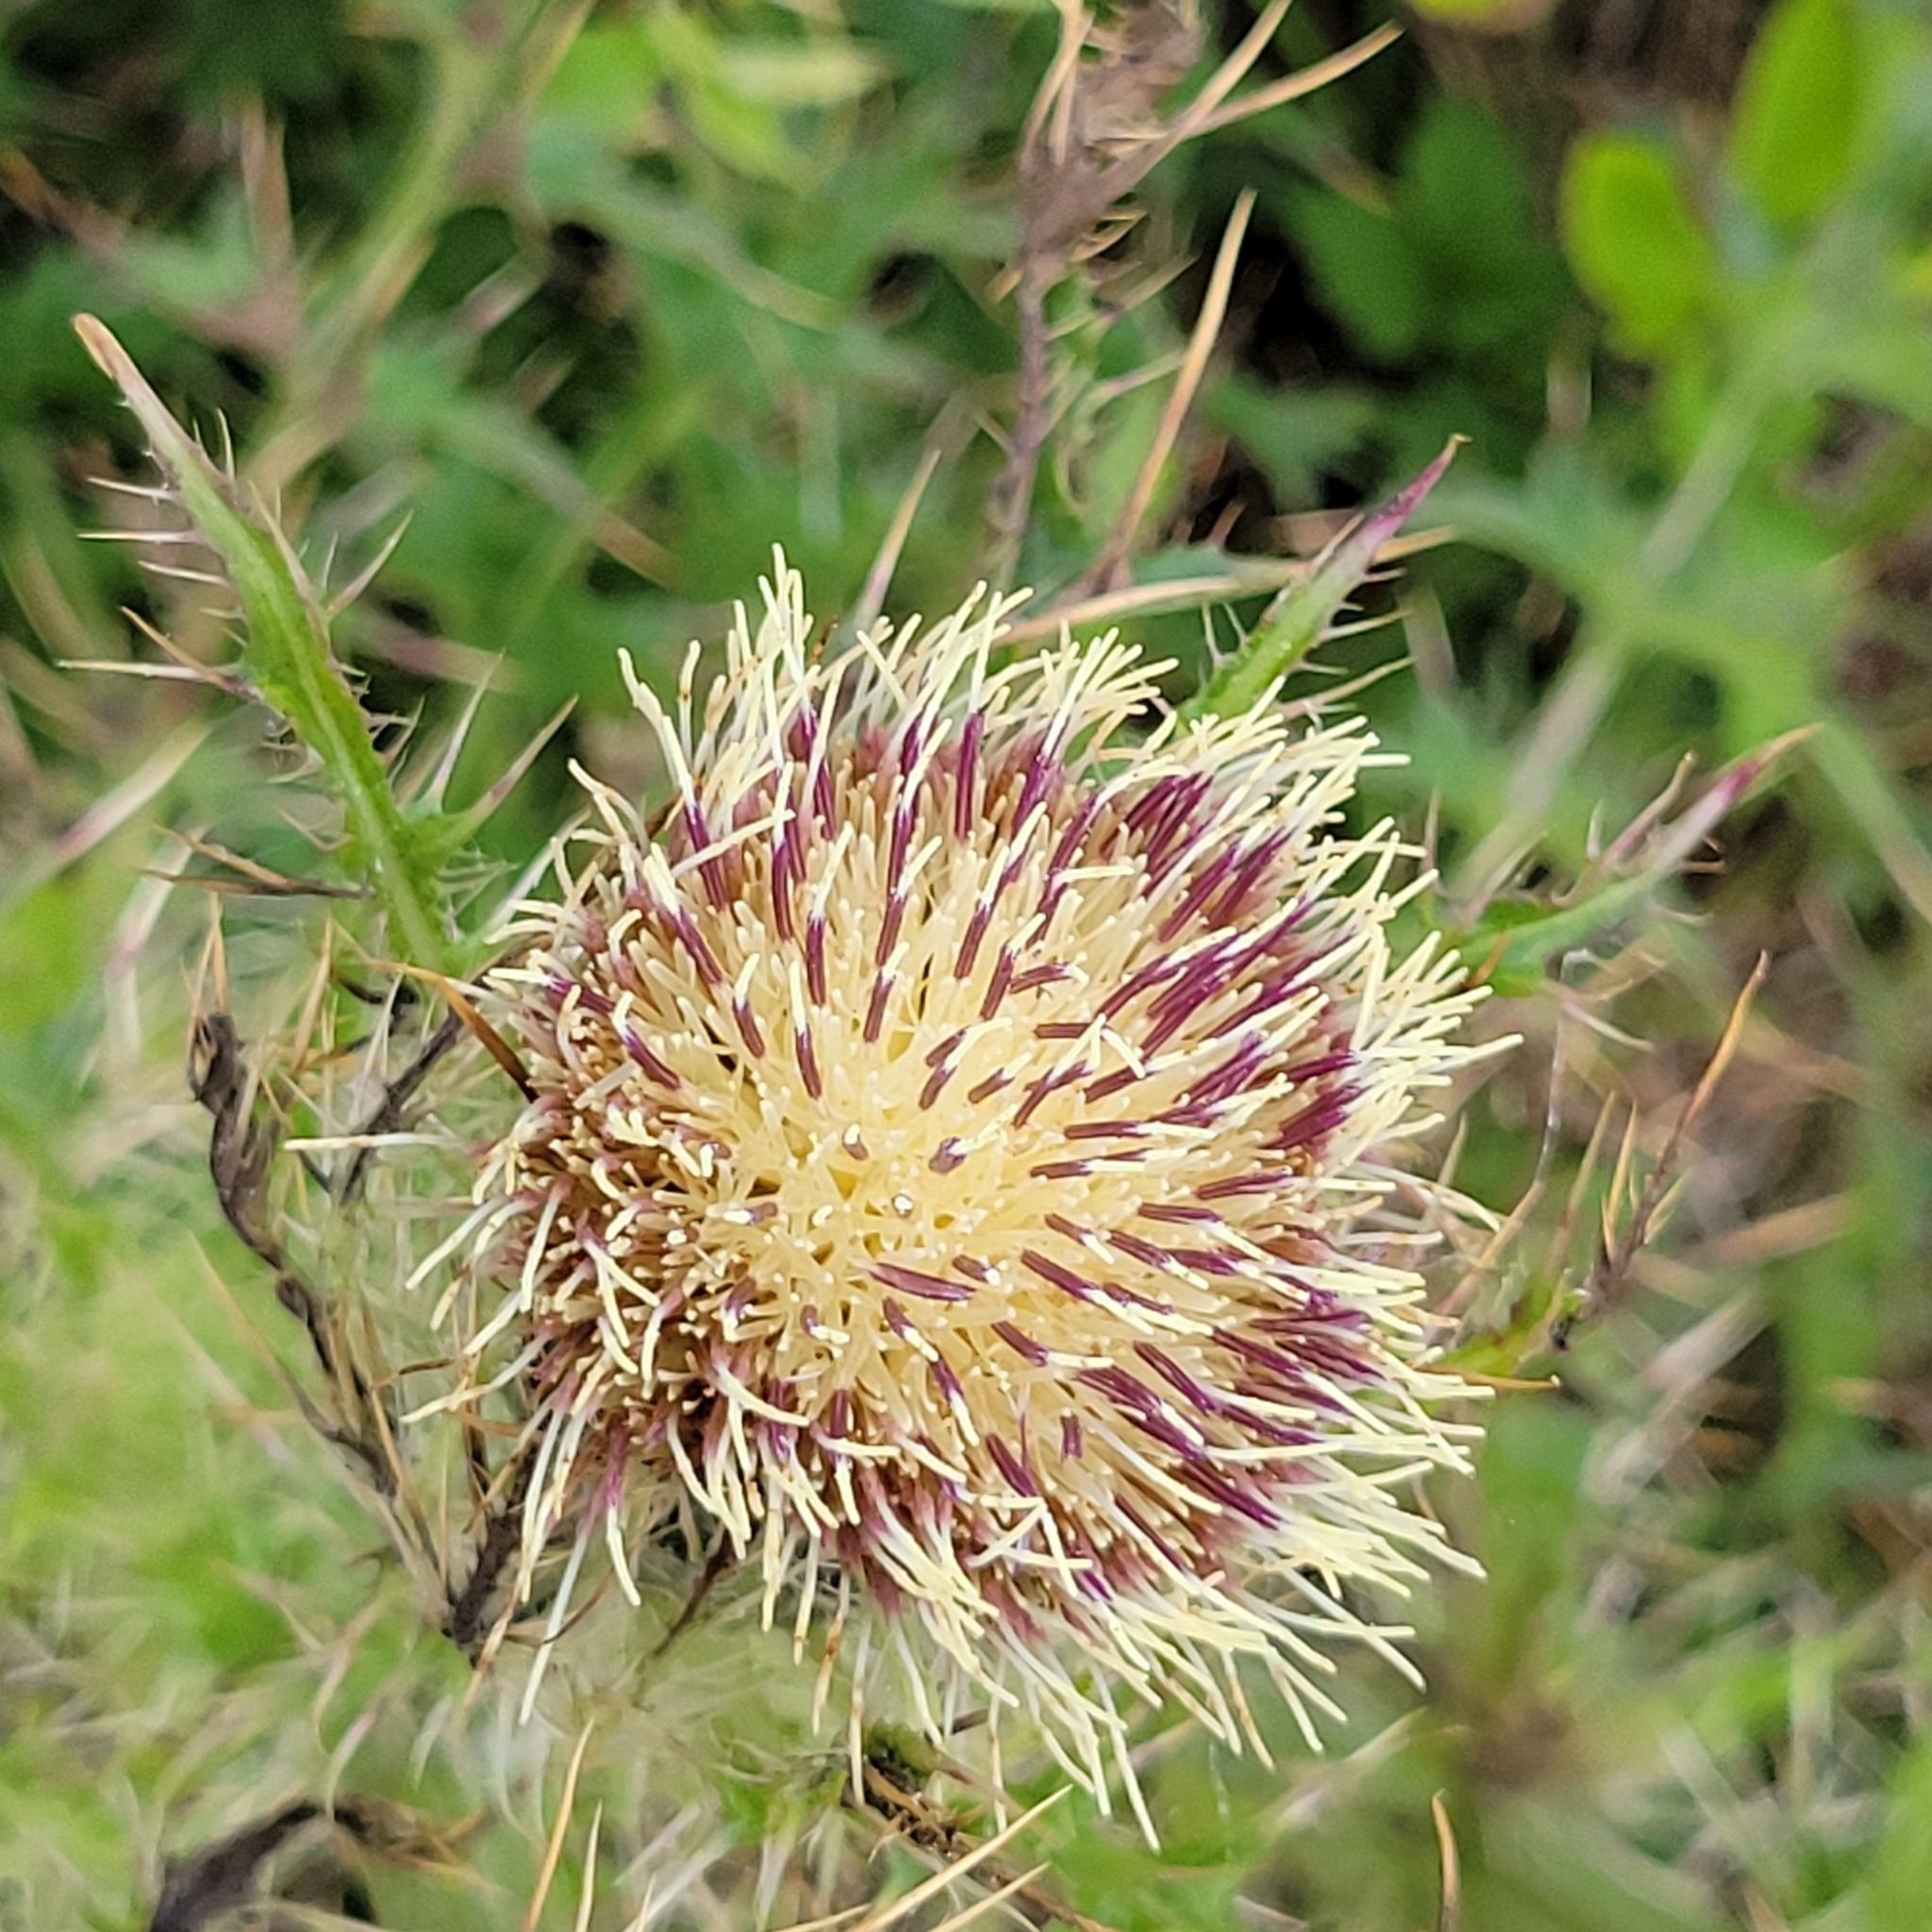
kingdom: Plantae
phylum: Tracheophyta
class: Magnoliopsida
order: Asterales
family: Asteraceae
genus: Cirsium
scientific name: Cirsium horridulum
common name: Bristly thistle
